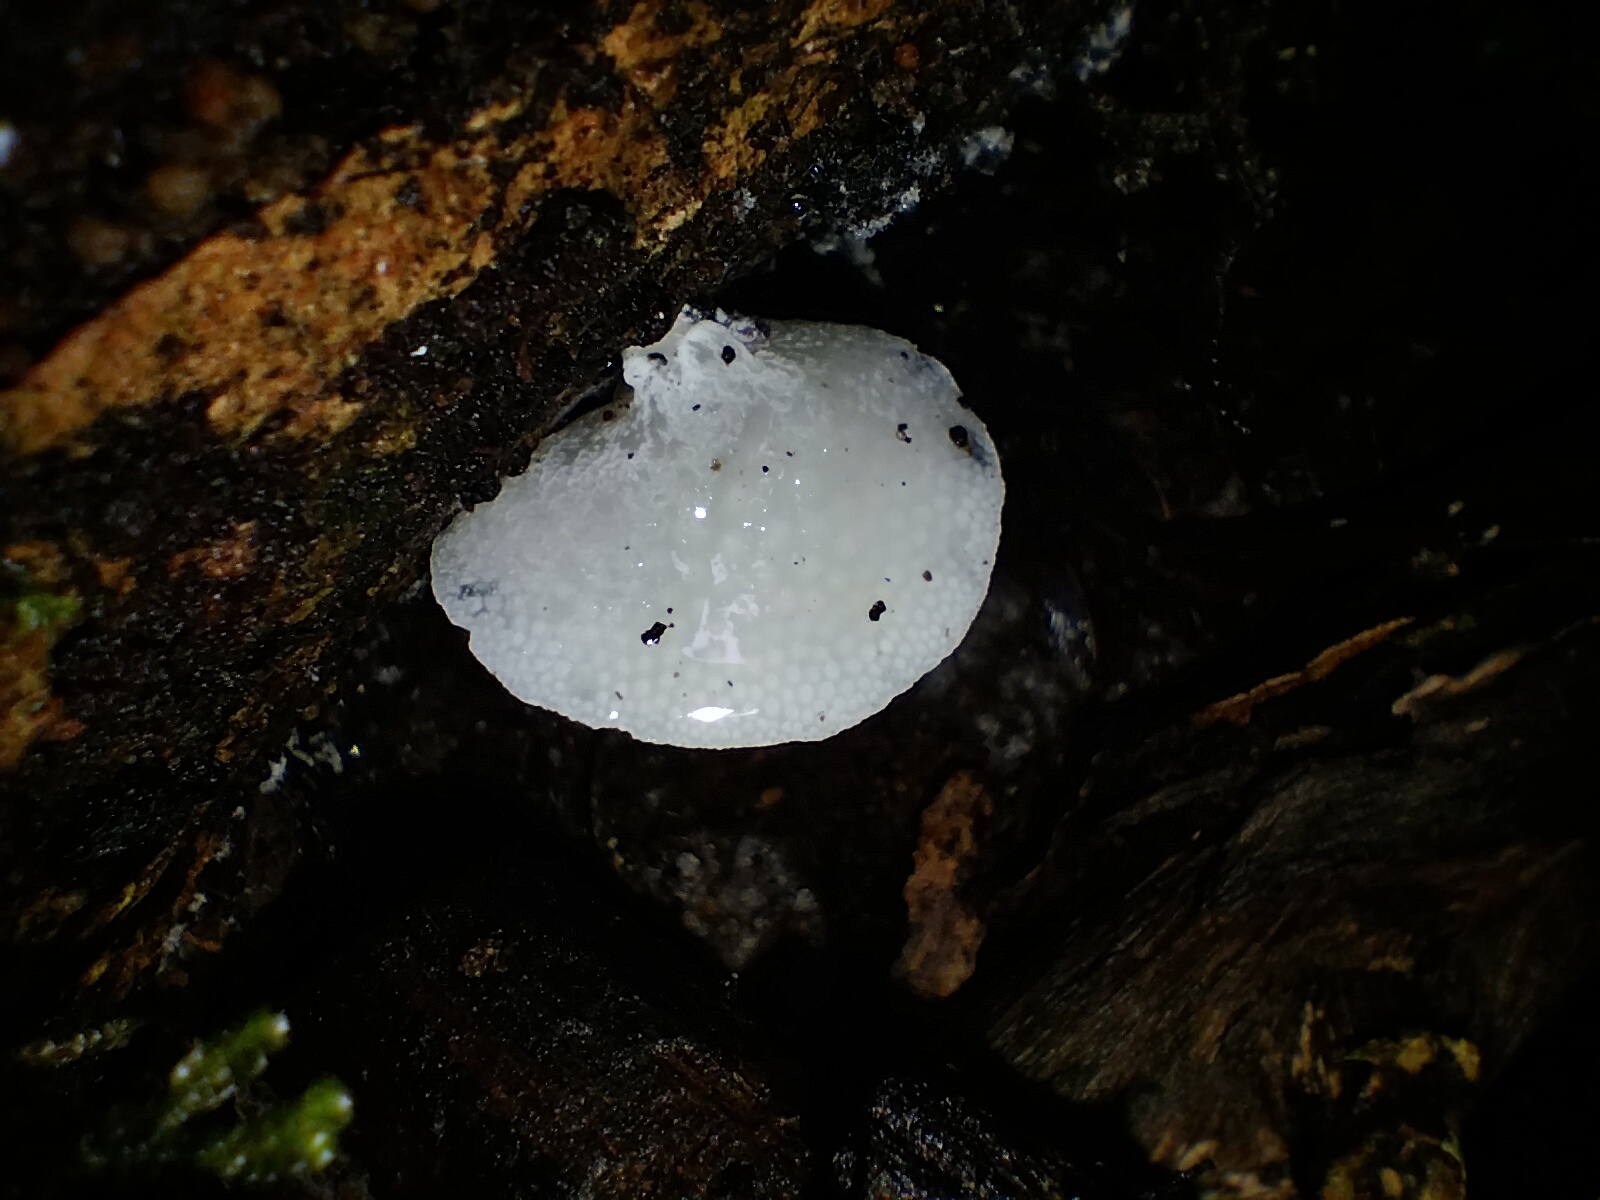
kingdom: Fungi
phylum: Basidiomycota
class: Agaricomycetes
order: Agaricales
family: Mycenaceae
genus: Favolaschia
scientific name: Favolaschia pustulosa
